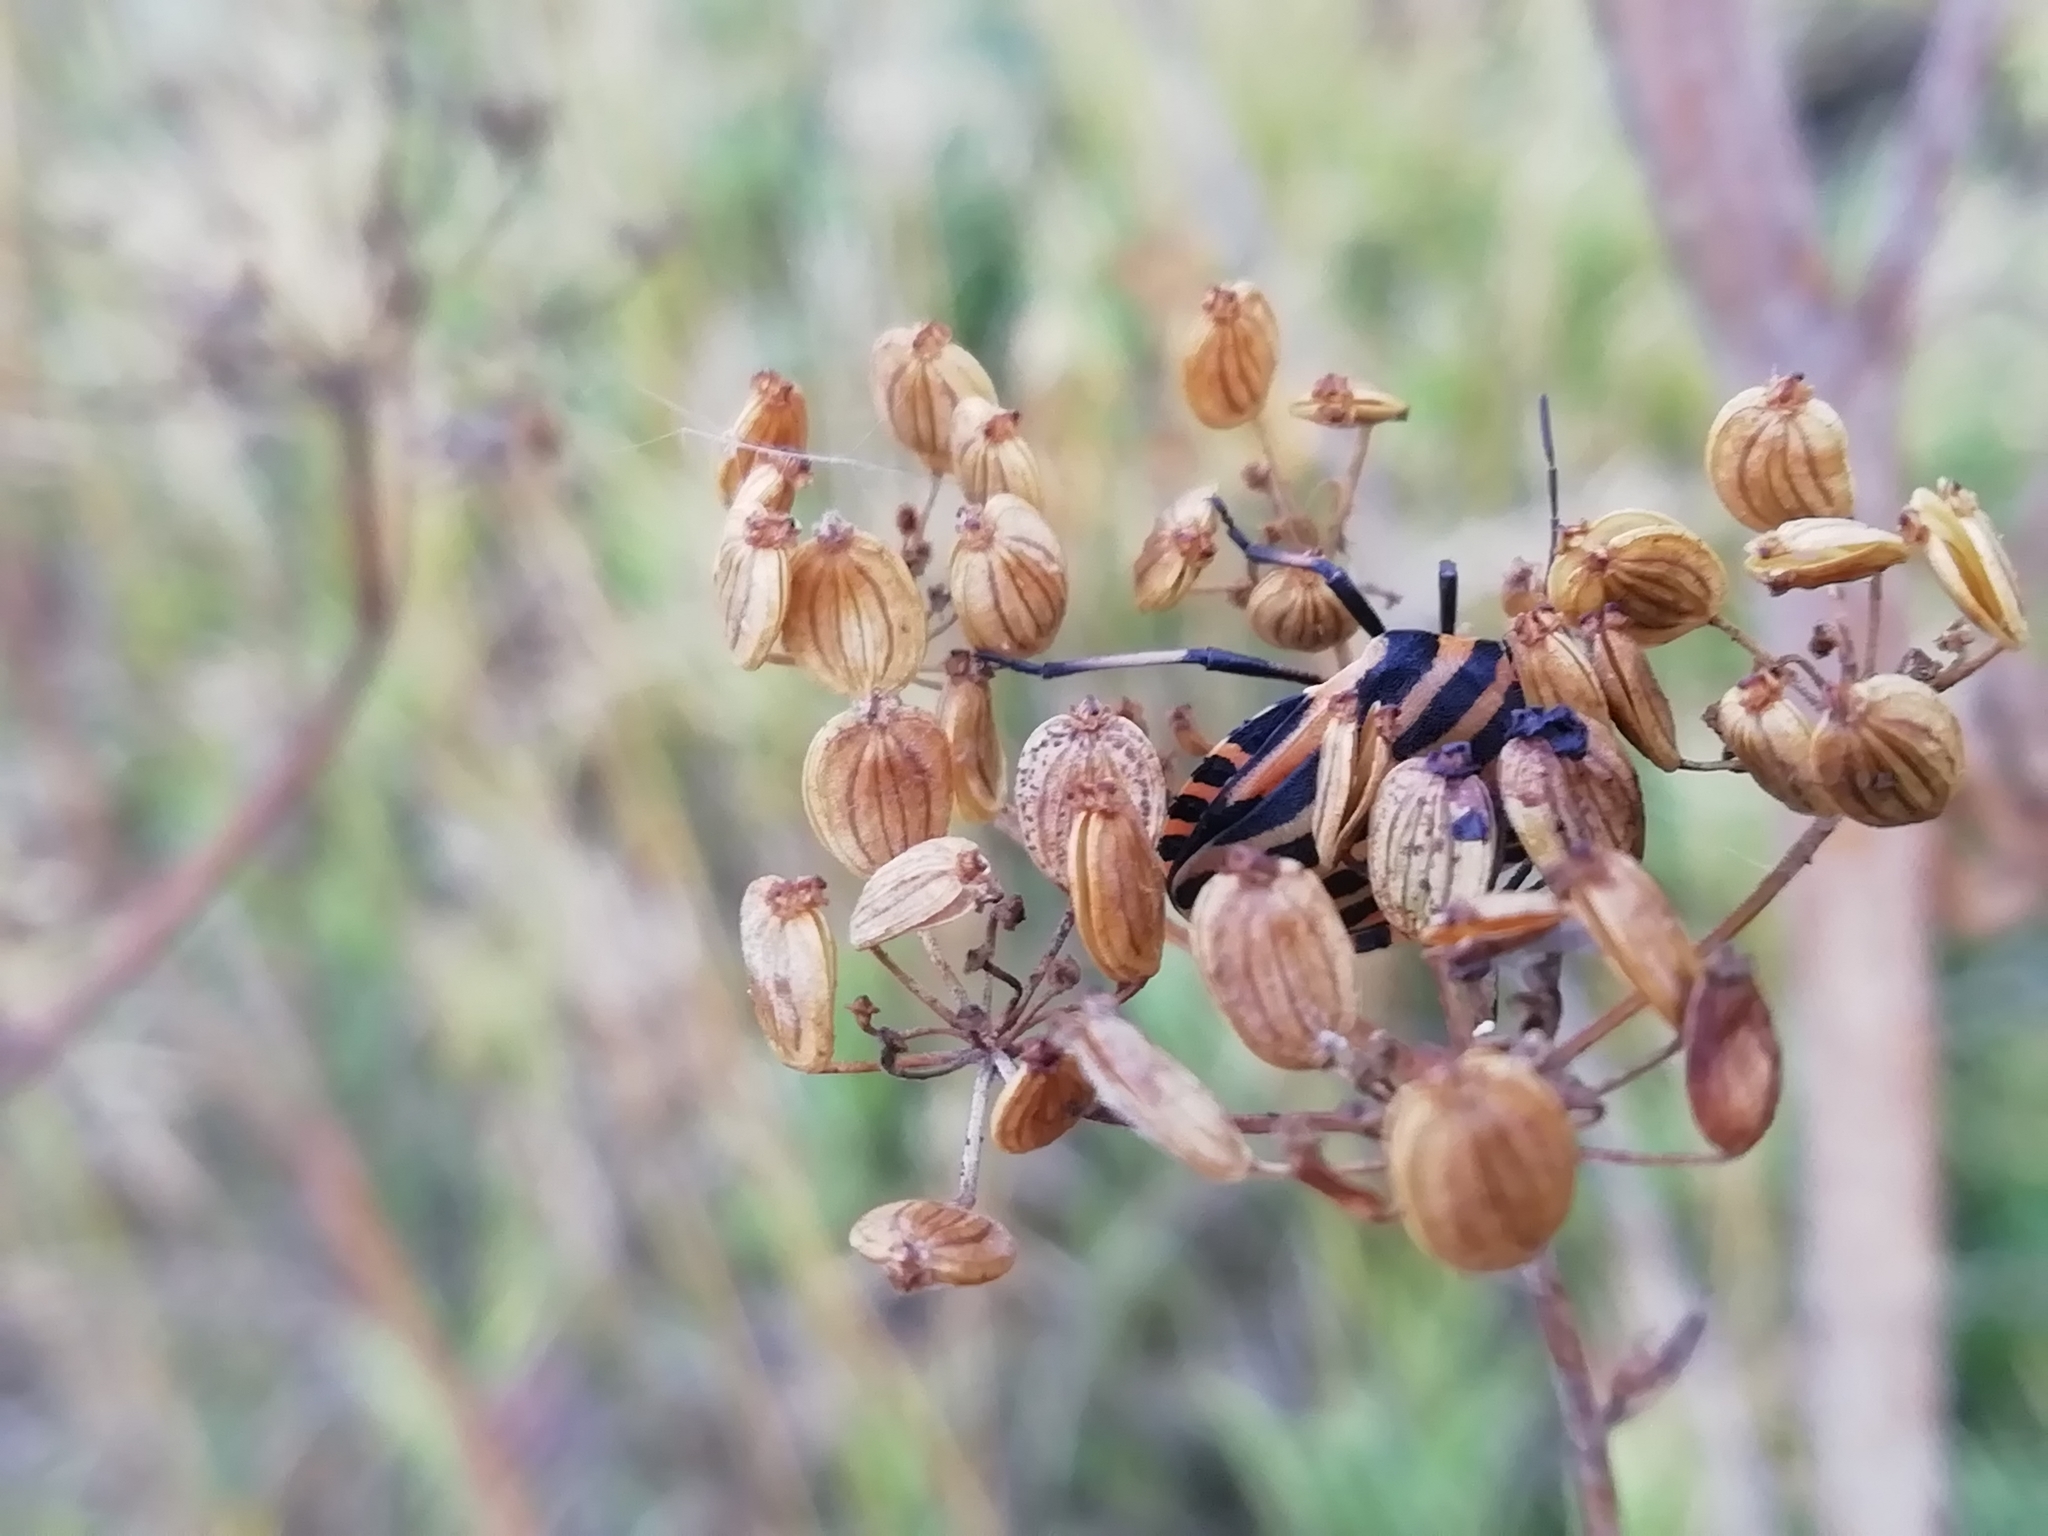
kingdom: Animalia
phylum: Arthropoda
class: Insecta
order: Hemiptera
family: Pentatomidae
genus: Graphosoma
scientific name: Graphosoma italicum
